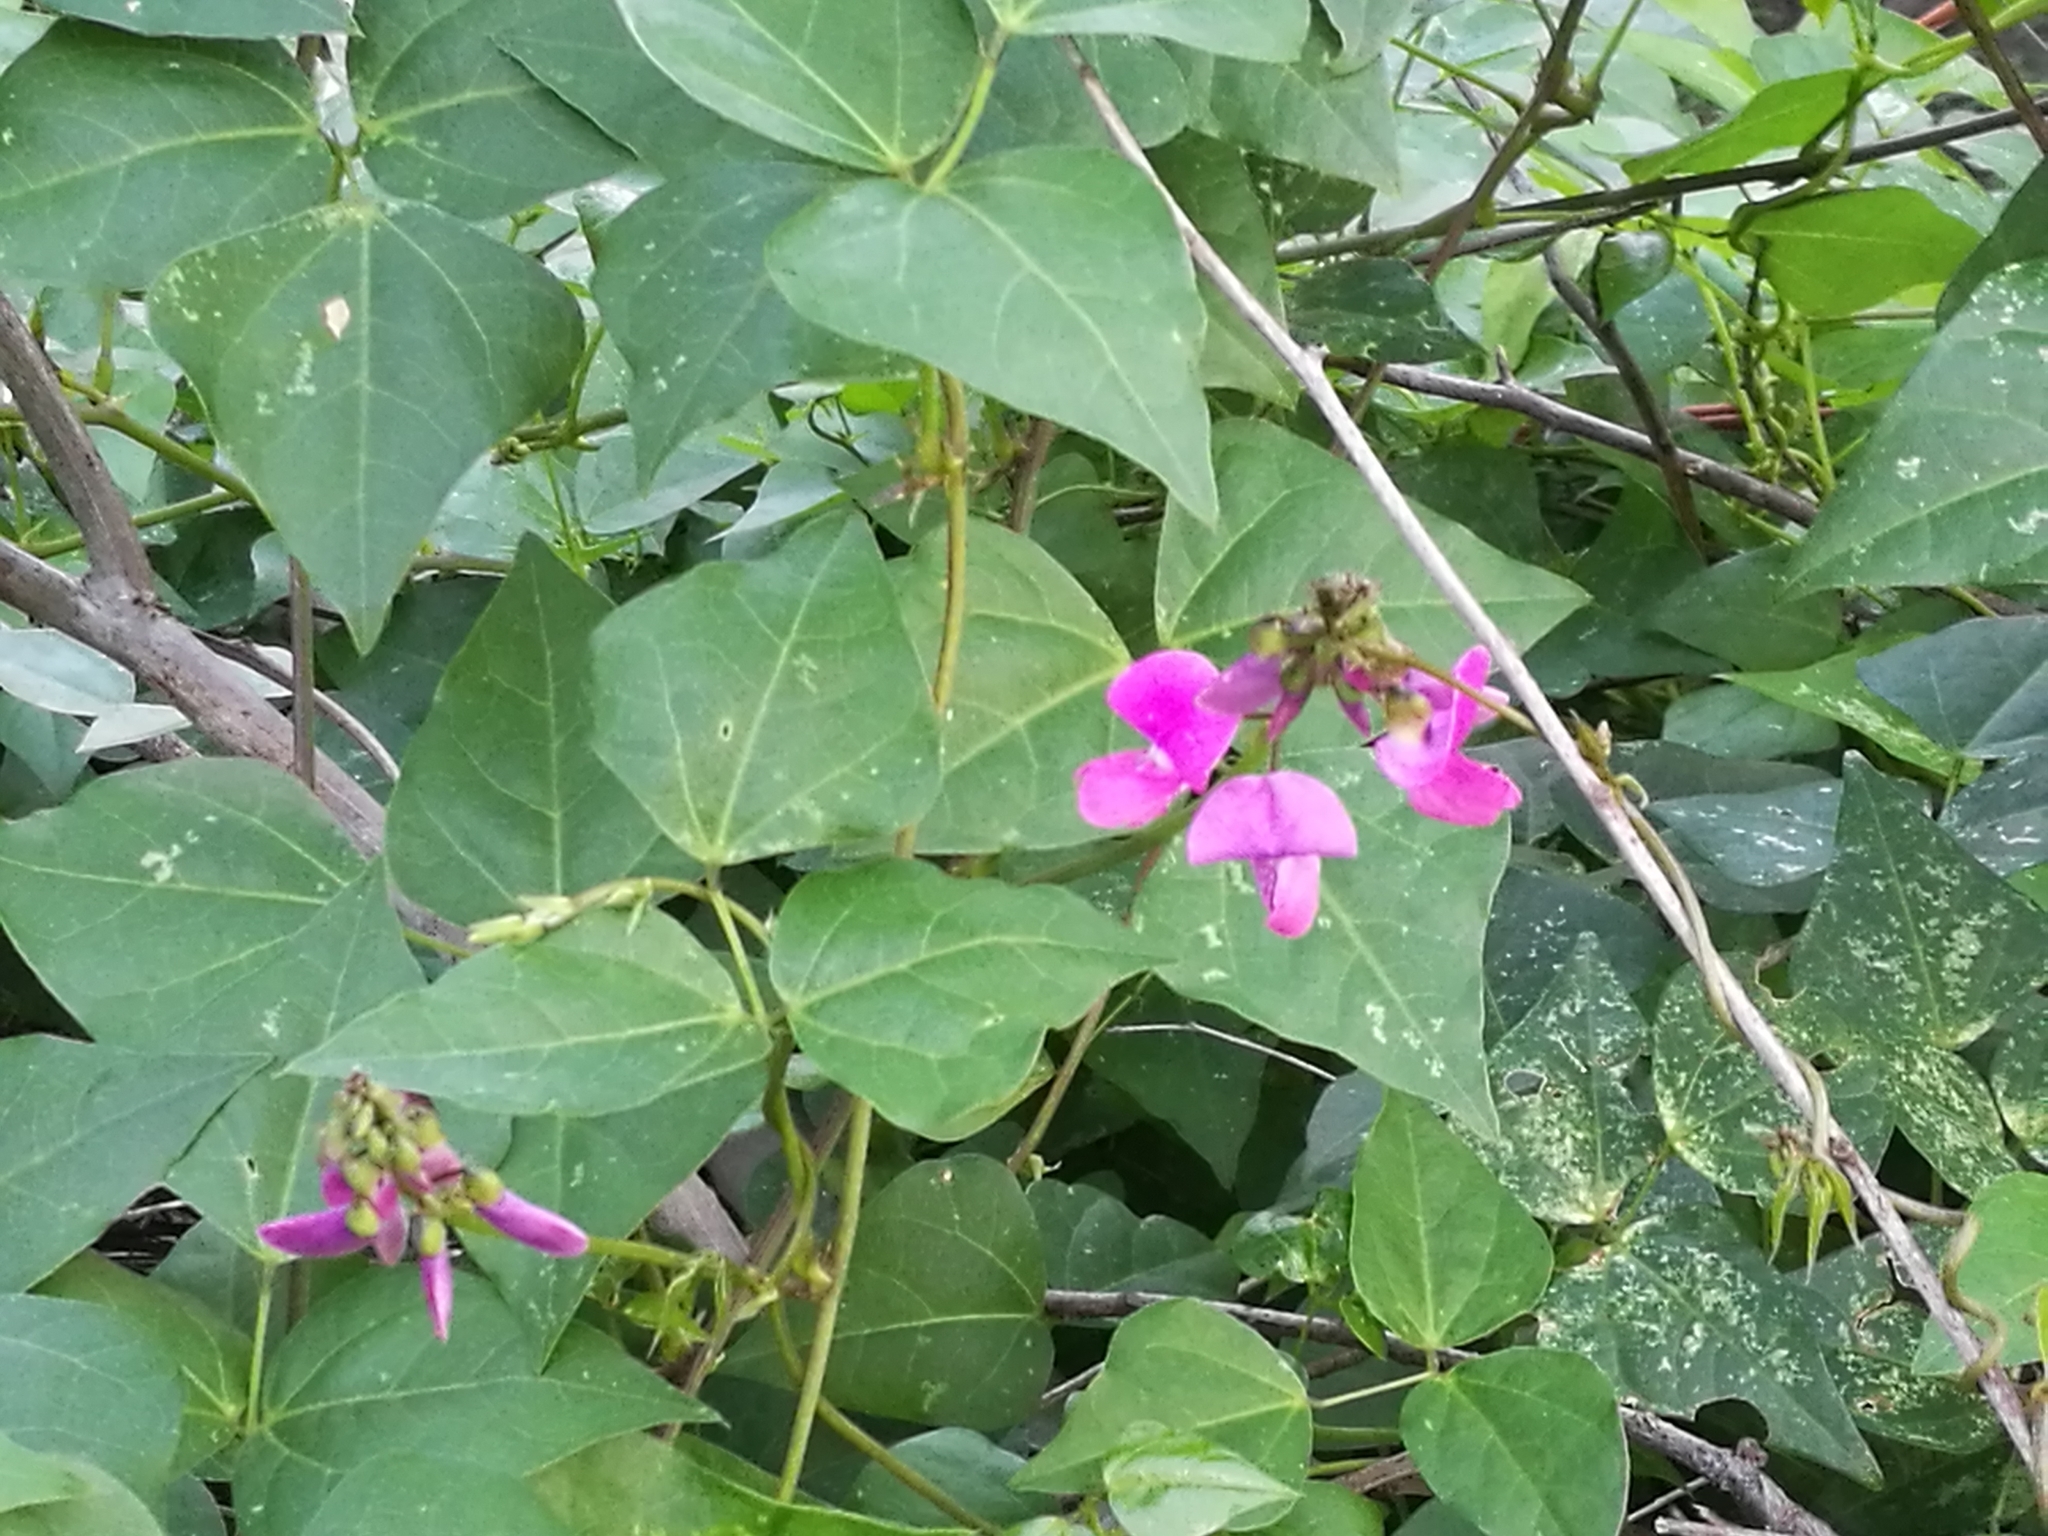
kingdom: Plantae
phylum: Tracheophyta
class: Magnoliopsida
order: Fabales
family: Fabaceae
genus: Dipogon
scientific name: Dipogon lignosus
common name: Okie bean
